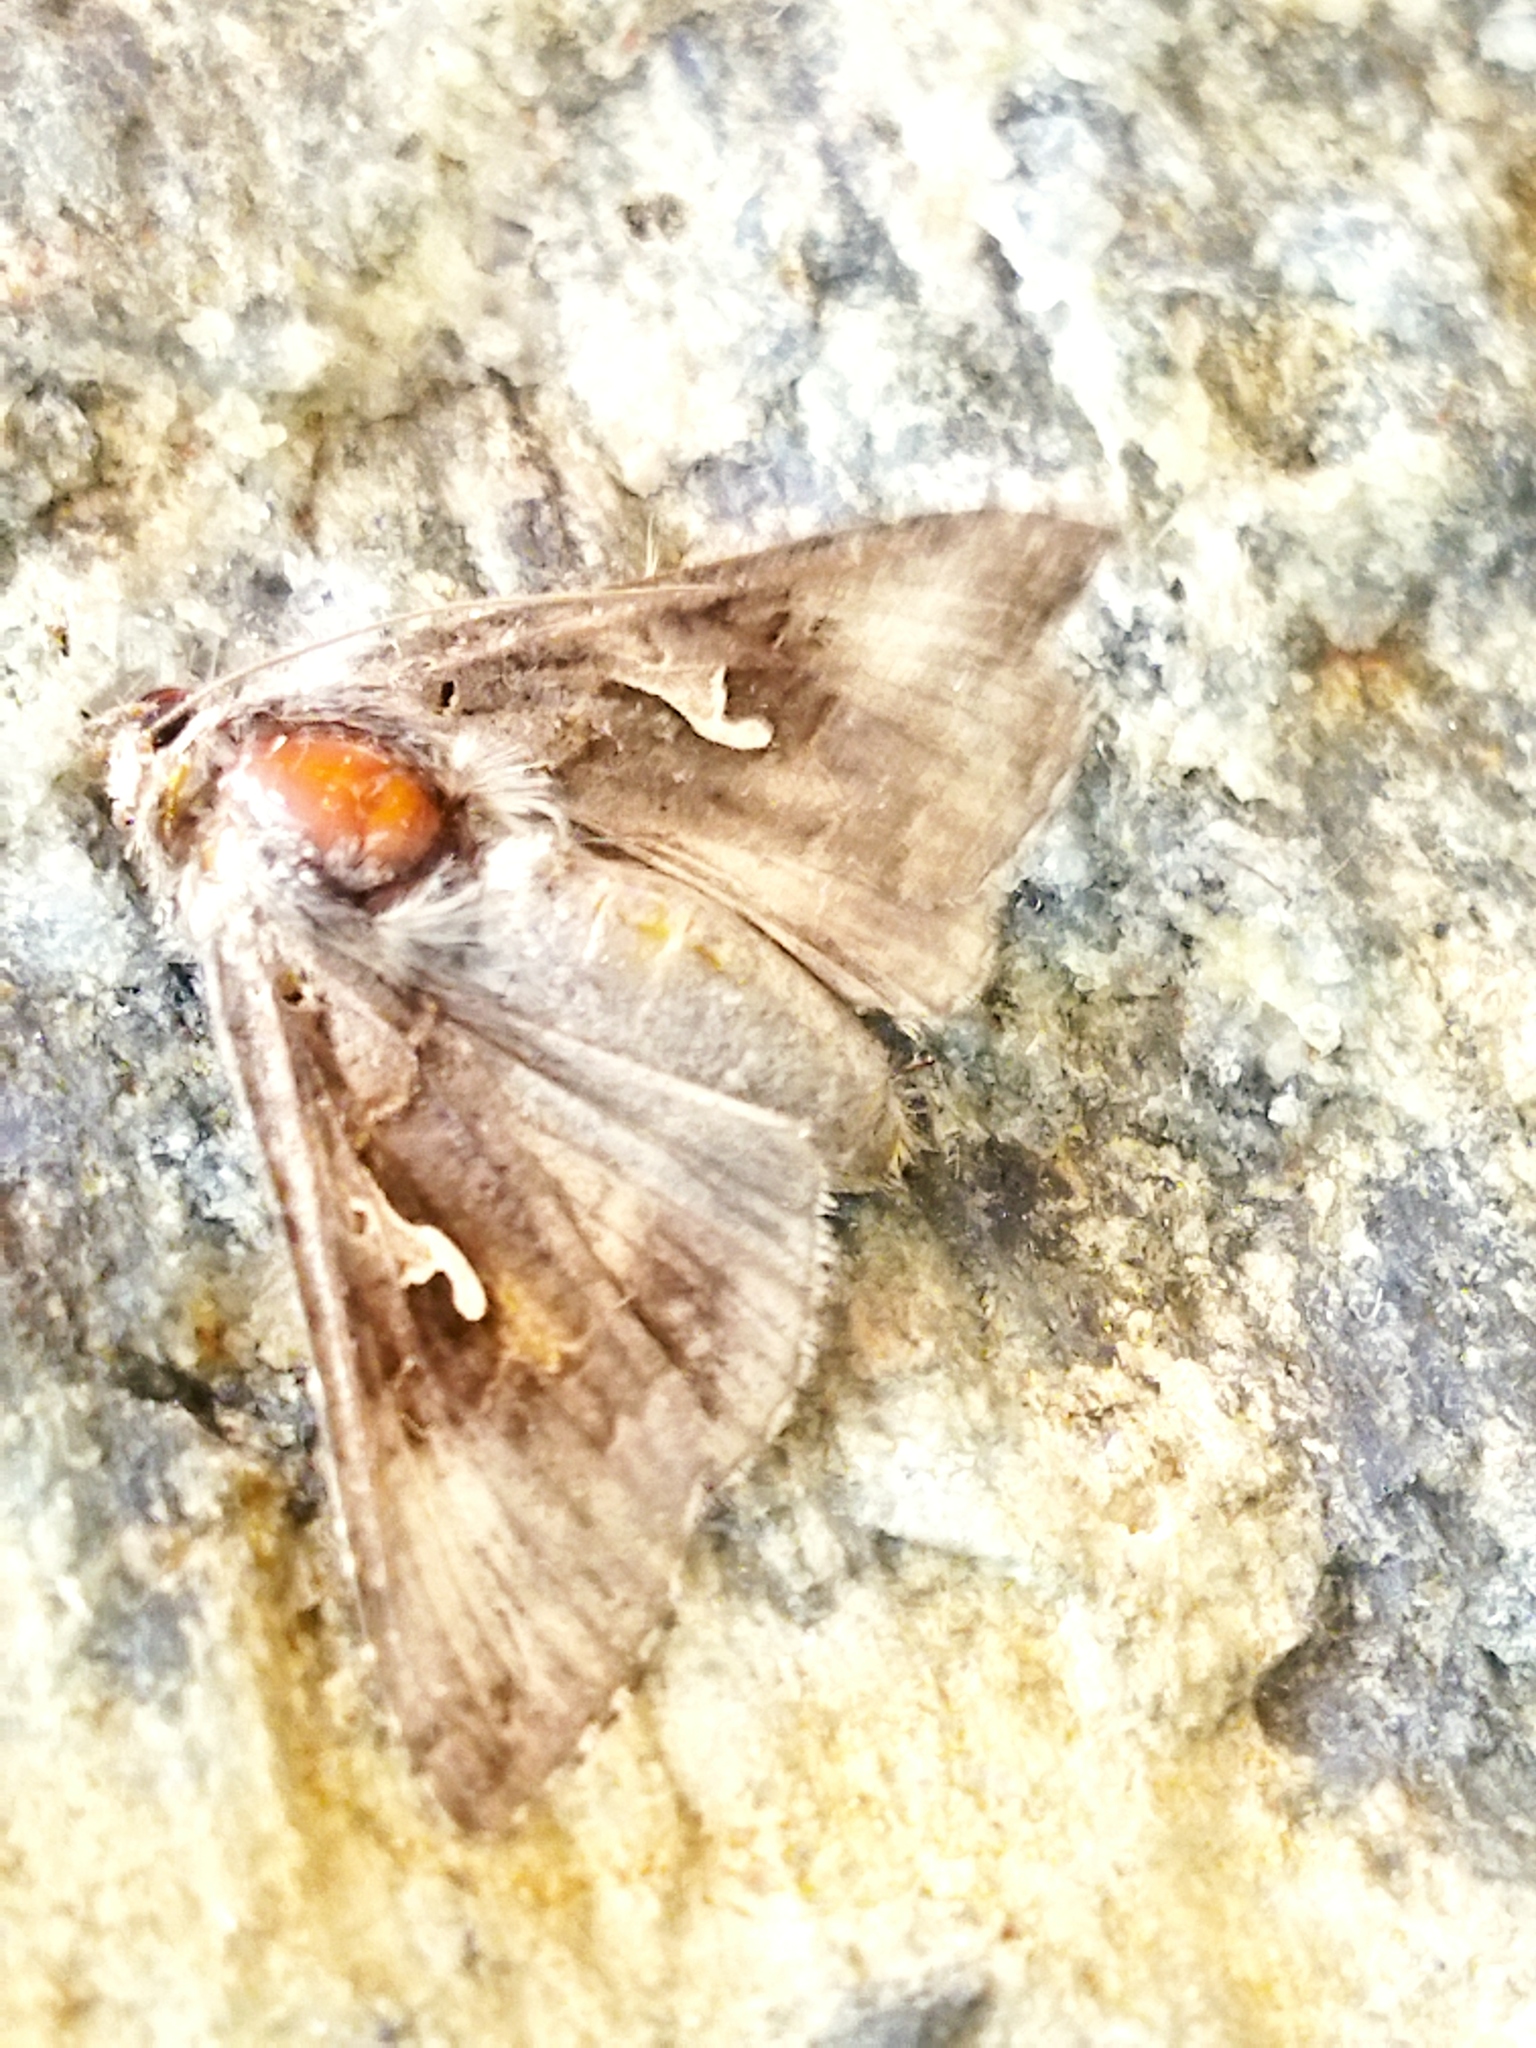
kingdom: Animalia
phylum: Arthropoda
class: Insecta
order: Lepidoptera
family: Noctuidae
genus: Autographa
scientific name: Autographa gamma
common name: Silver y
